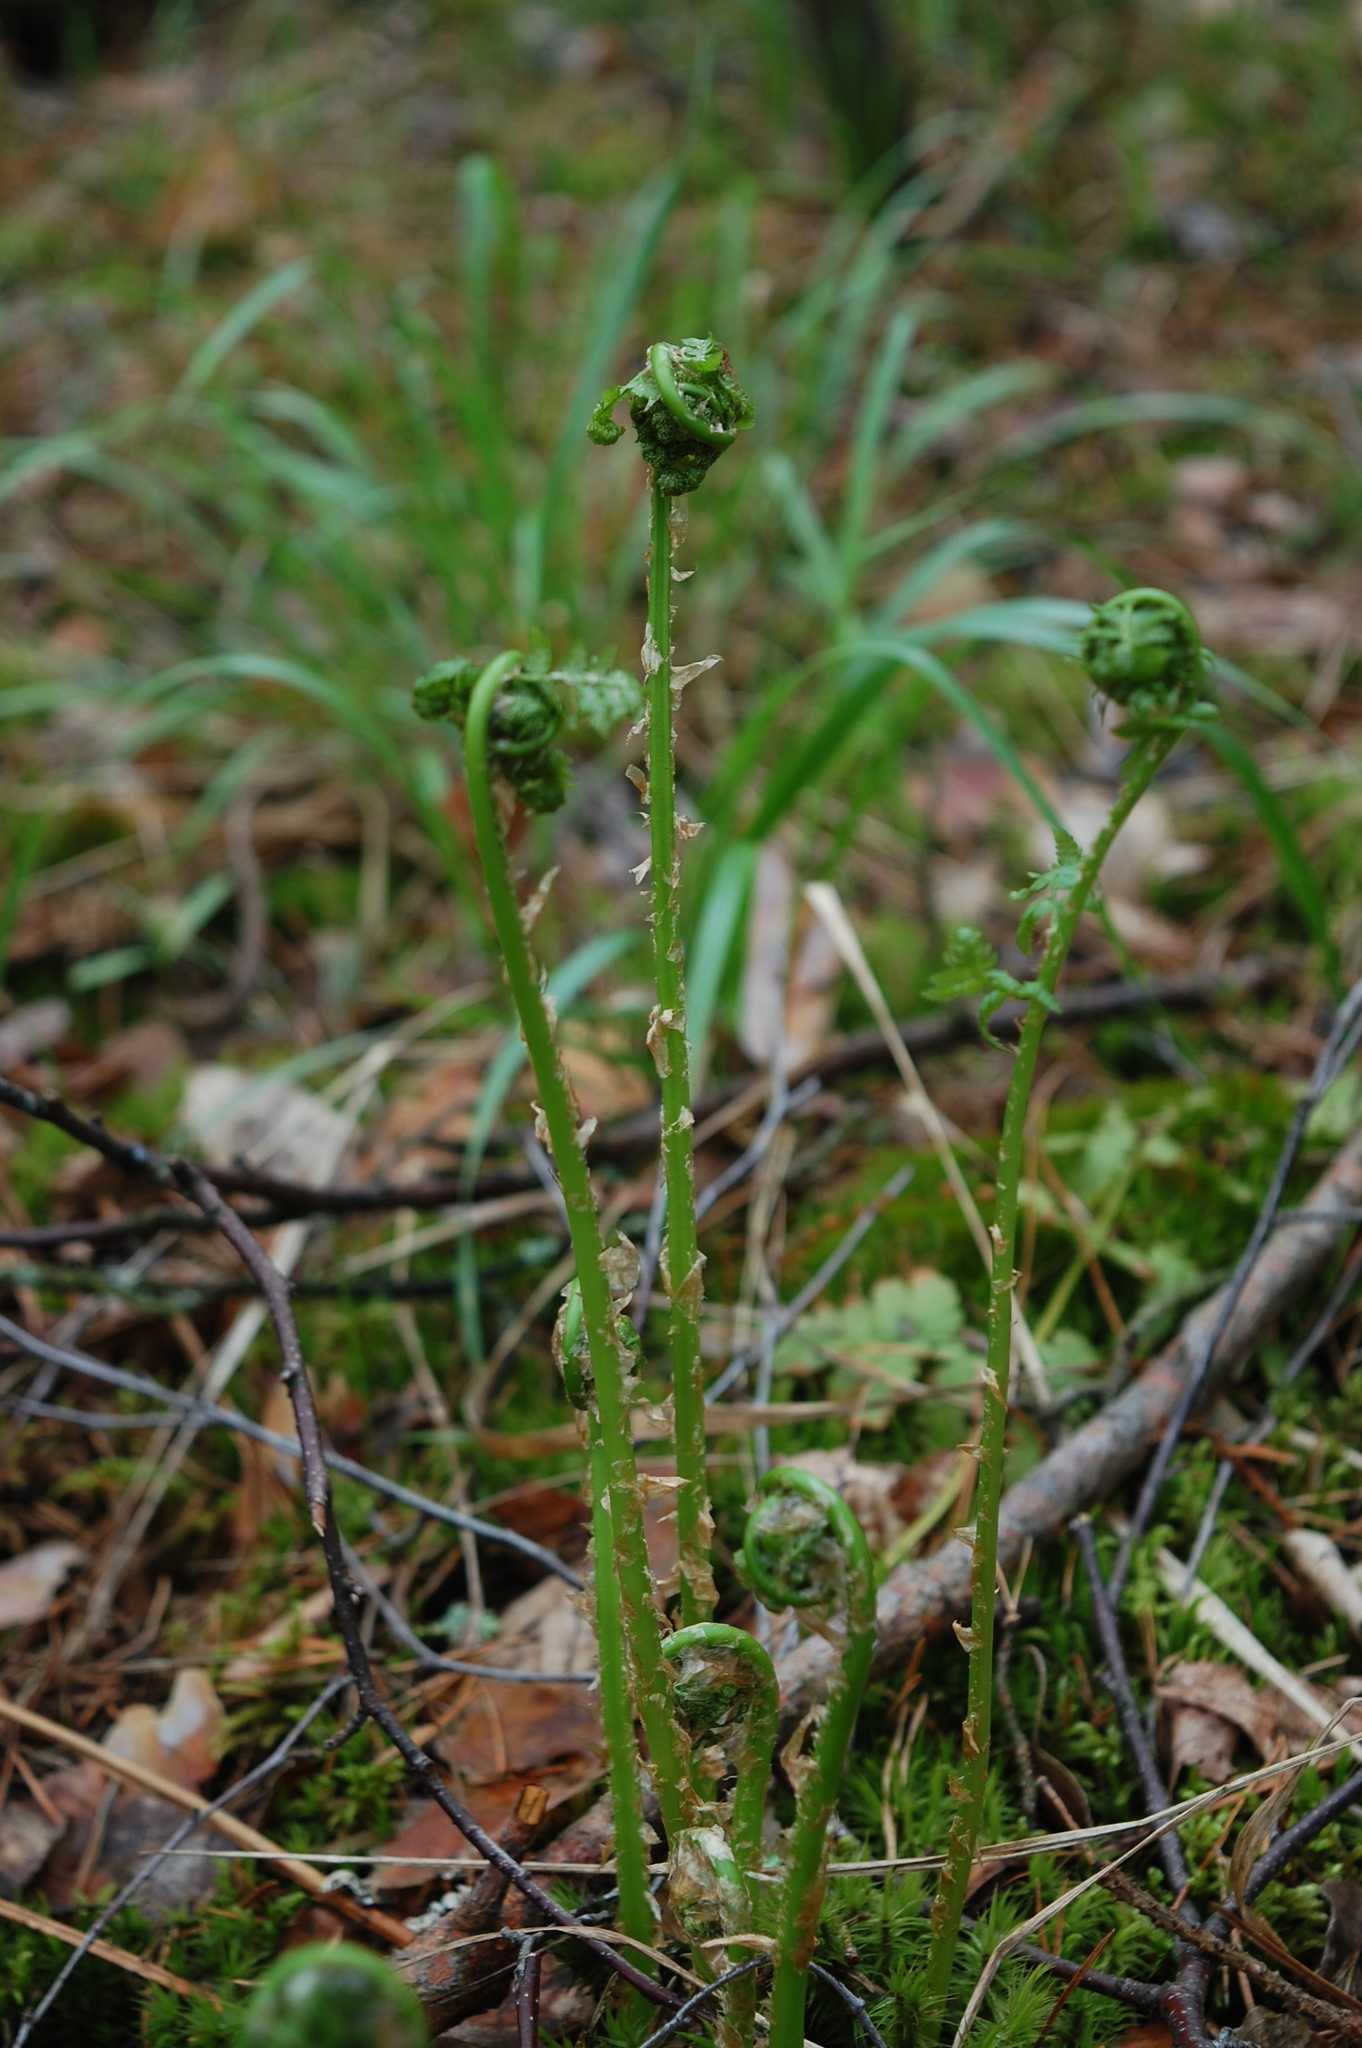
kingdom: Plantae
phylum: Tracheophyta
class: Polypodiopsida
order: Polypodiales
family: Dryopteridaceae
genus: Dryopteris
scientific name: Dryopteris carthusiana
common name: Narrow buckler-fern
